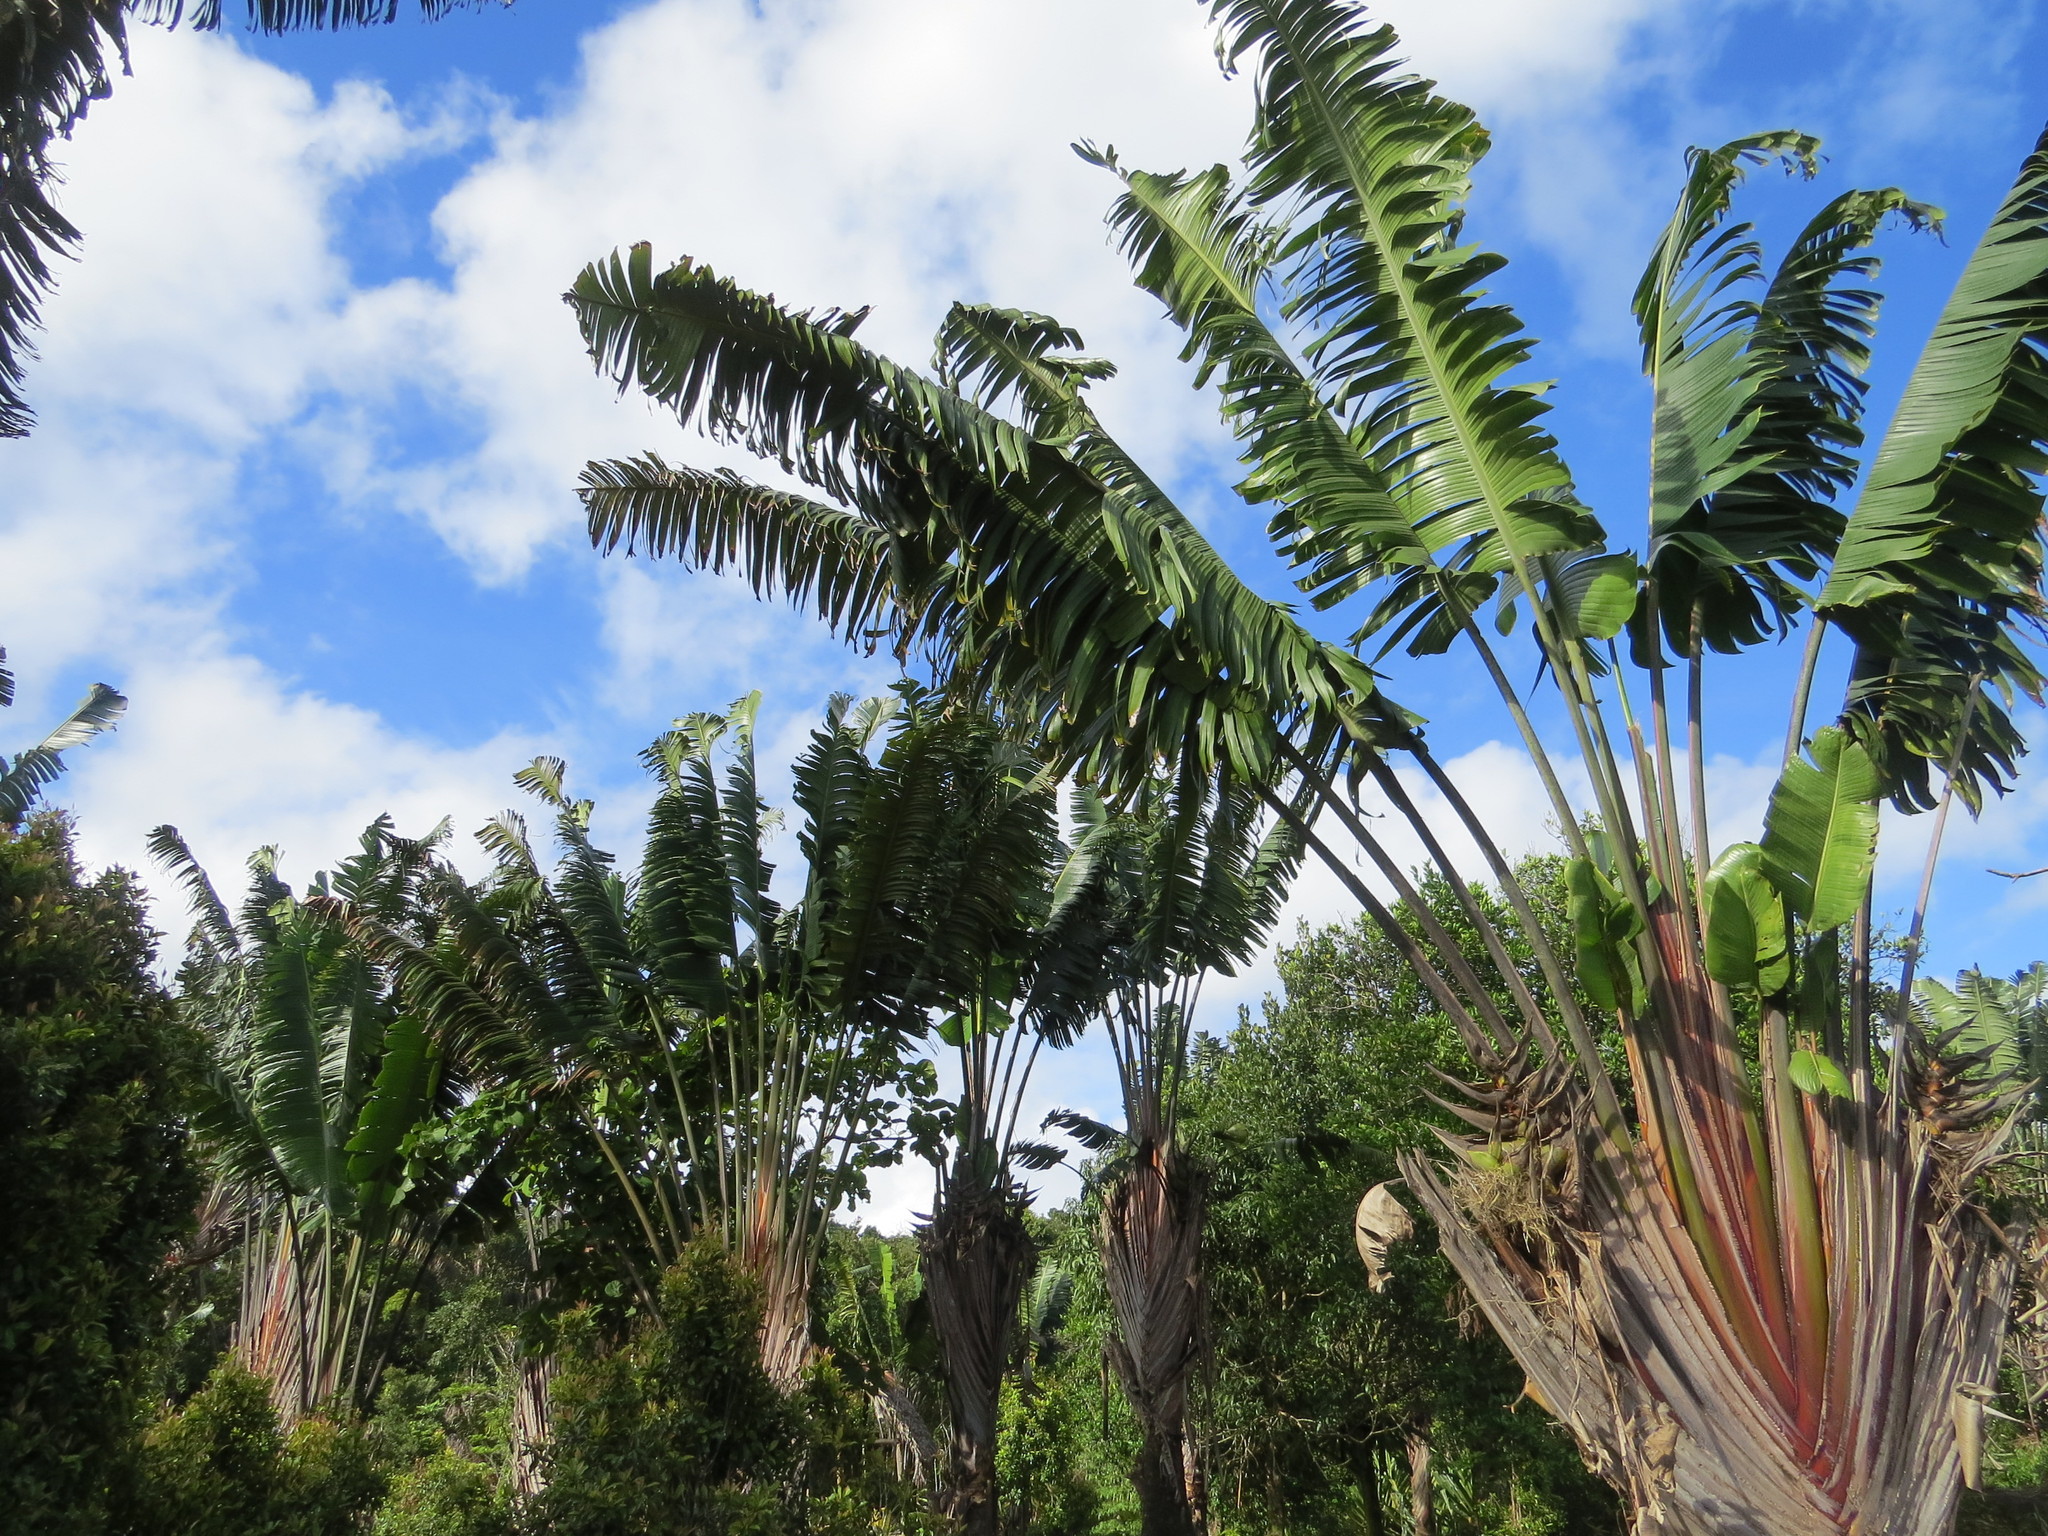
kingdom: Plantae
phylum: Tracheophyta
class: Liliopsida
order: Zingiberales
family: Strelitziaceae
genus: Ravenala
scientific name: Ravenala menahirana
